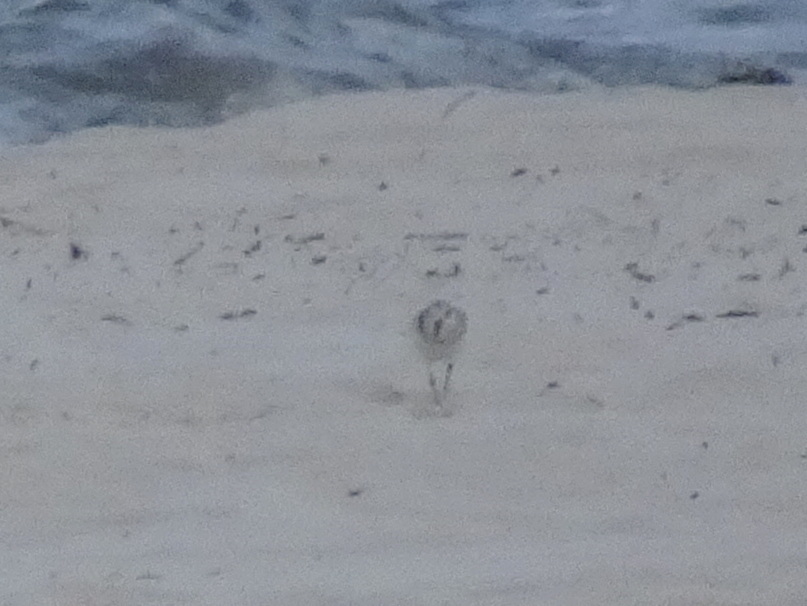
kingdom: Animalia
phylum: Chordata
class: Aves
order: Charadriiformes
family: Scolopacidae
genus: Calidris
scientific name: Calidris alba
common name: Sanderling
